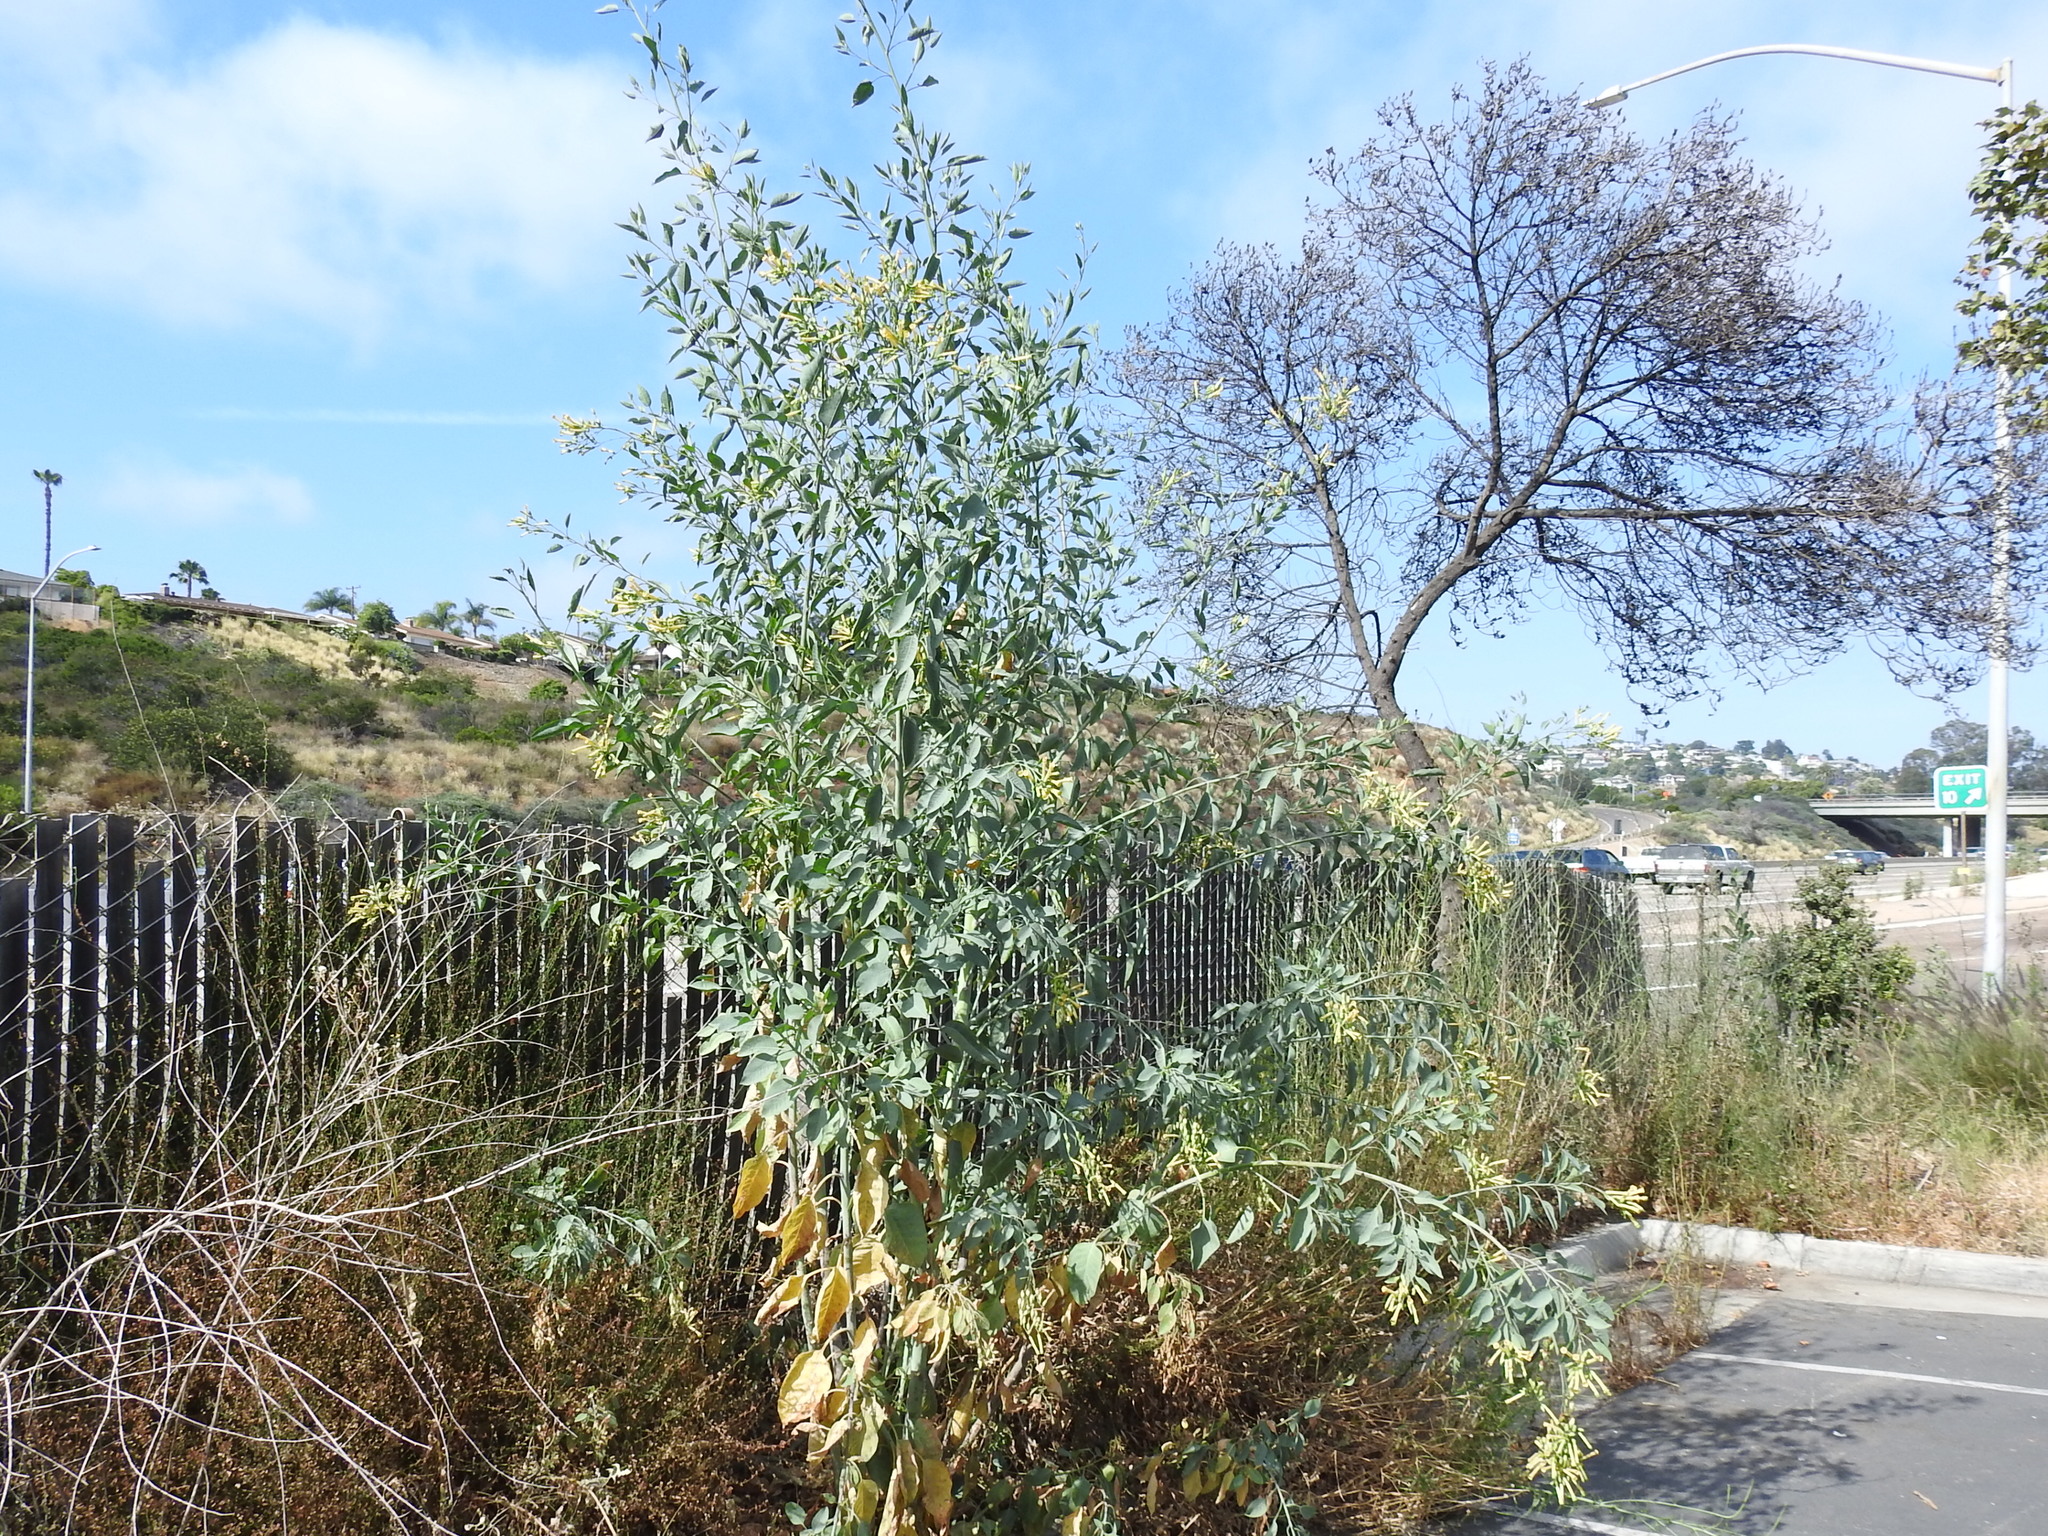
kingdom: Plantae
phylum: Tracheophyta
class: Magnoliopsida
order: Solanales
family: Solanaceae
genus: Nicotiana
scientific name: Nicotiana glauca
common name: Tree tobacco
